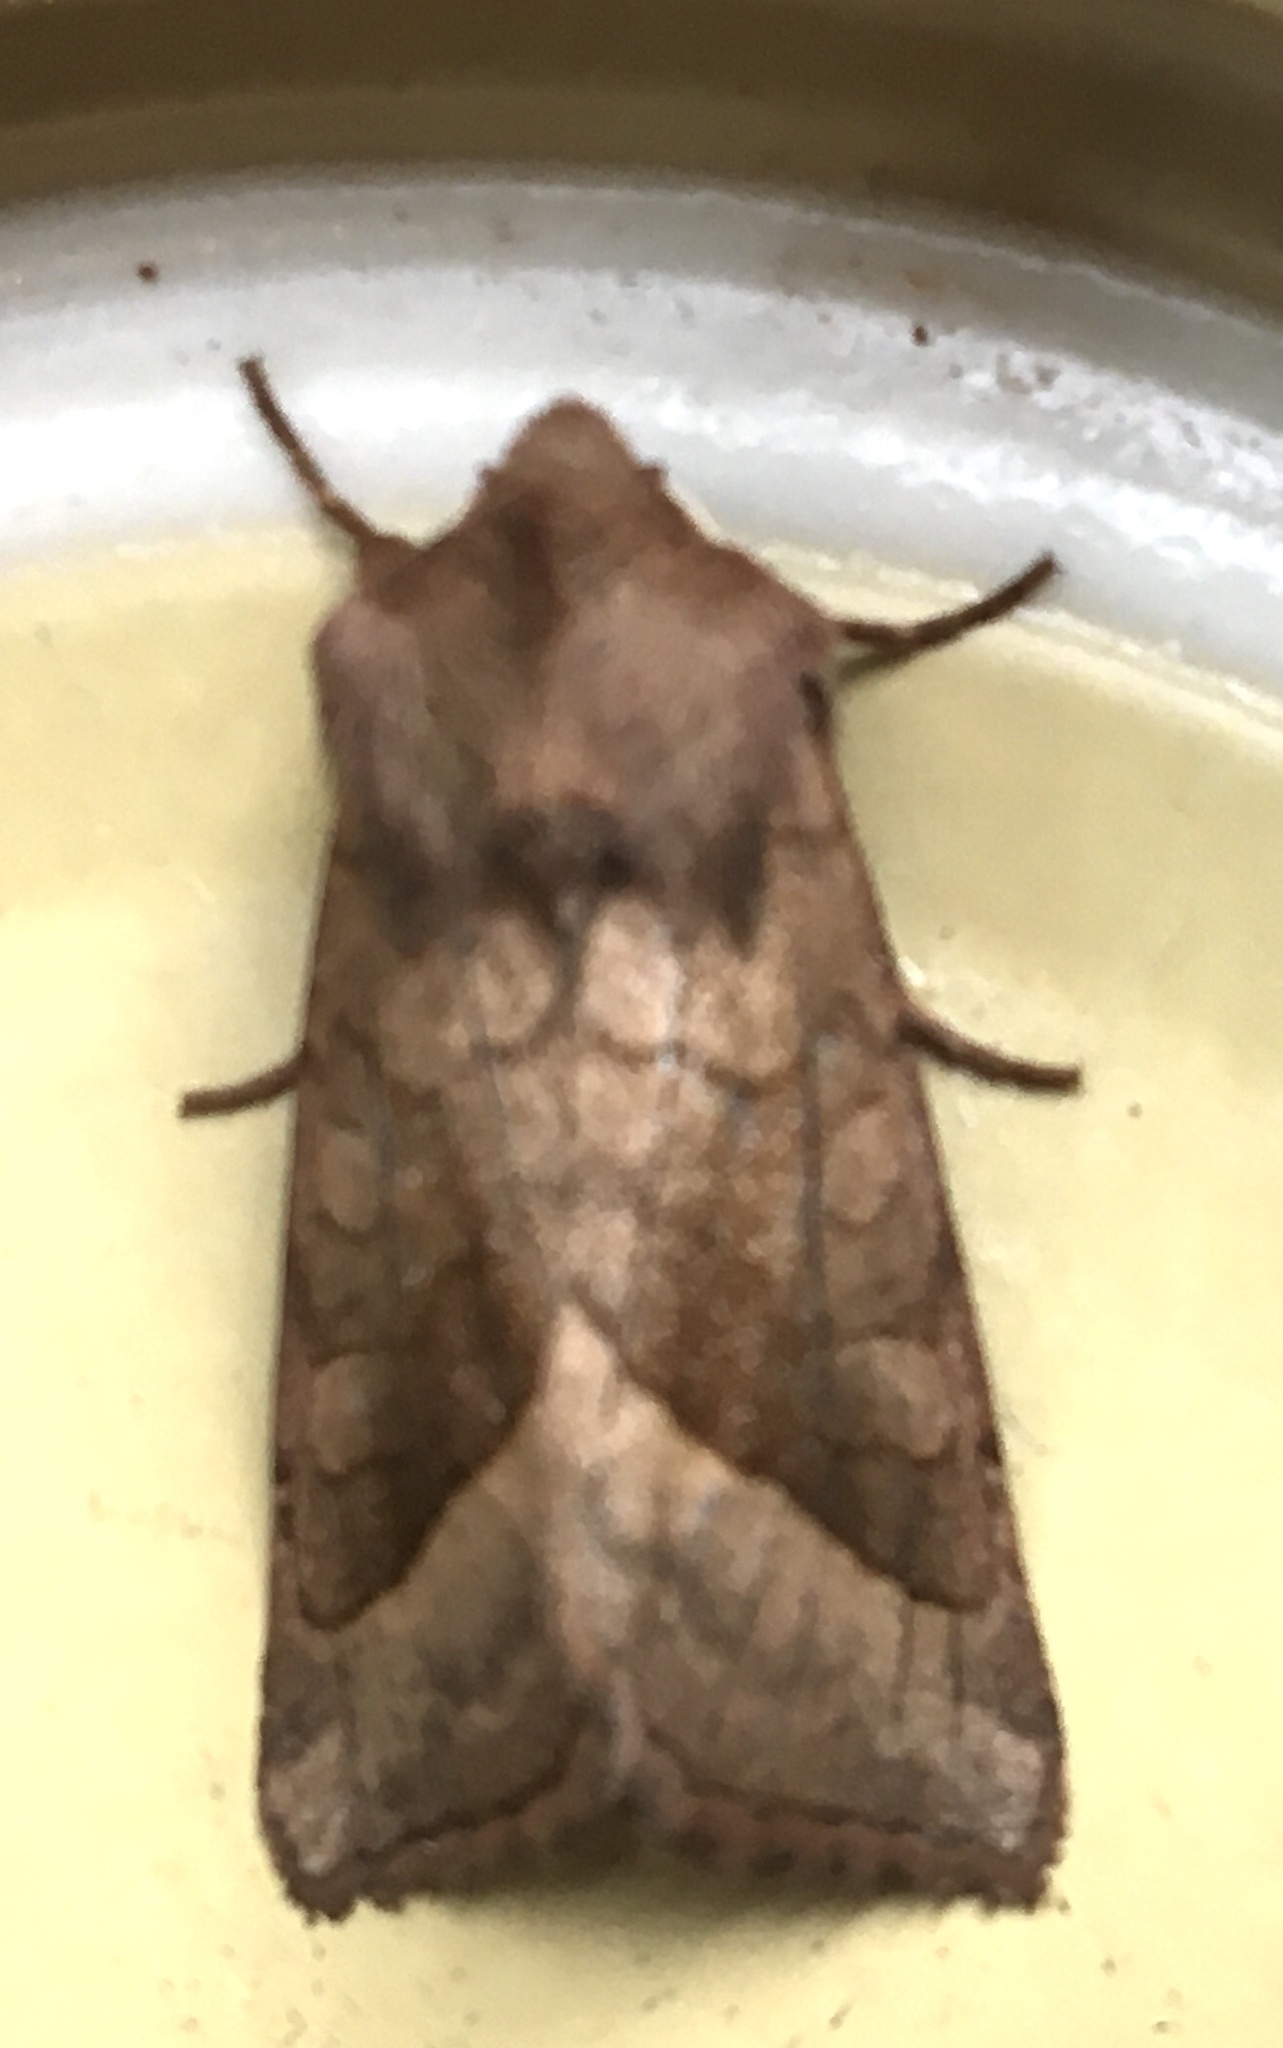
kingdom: Animalia
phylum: Arthropoda
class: Insecta
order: Lepidoptera
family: Noctuidae
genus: Hydraecia
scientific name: Hydraecia micacea
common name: Rosy rustic
